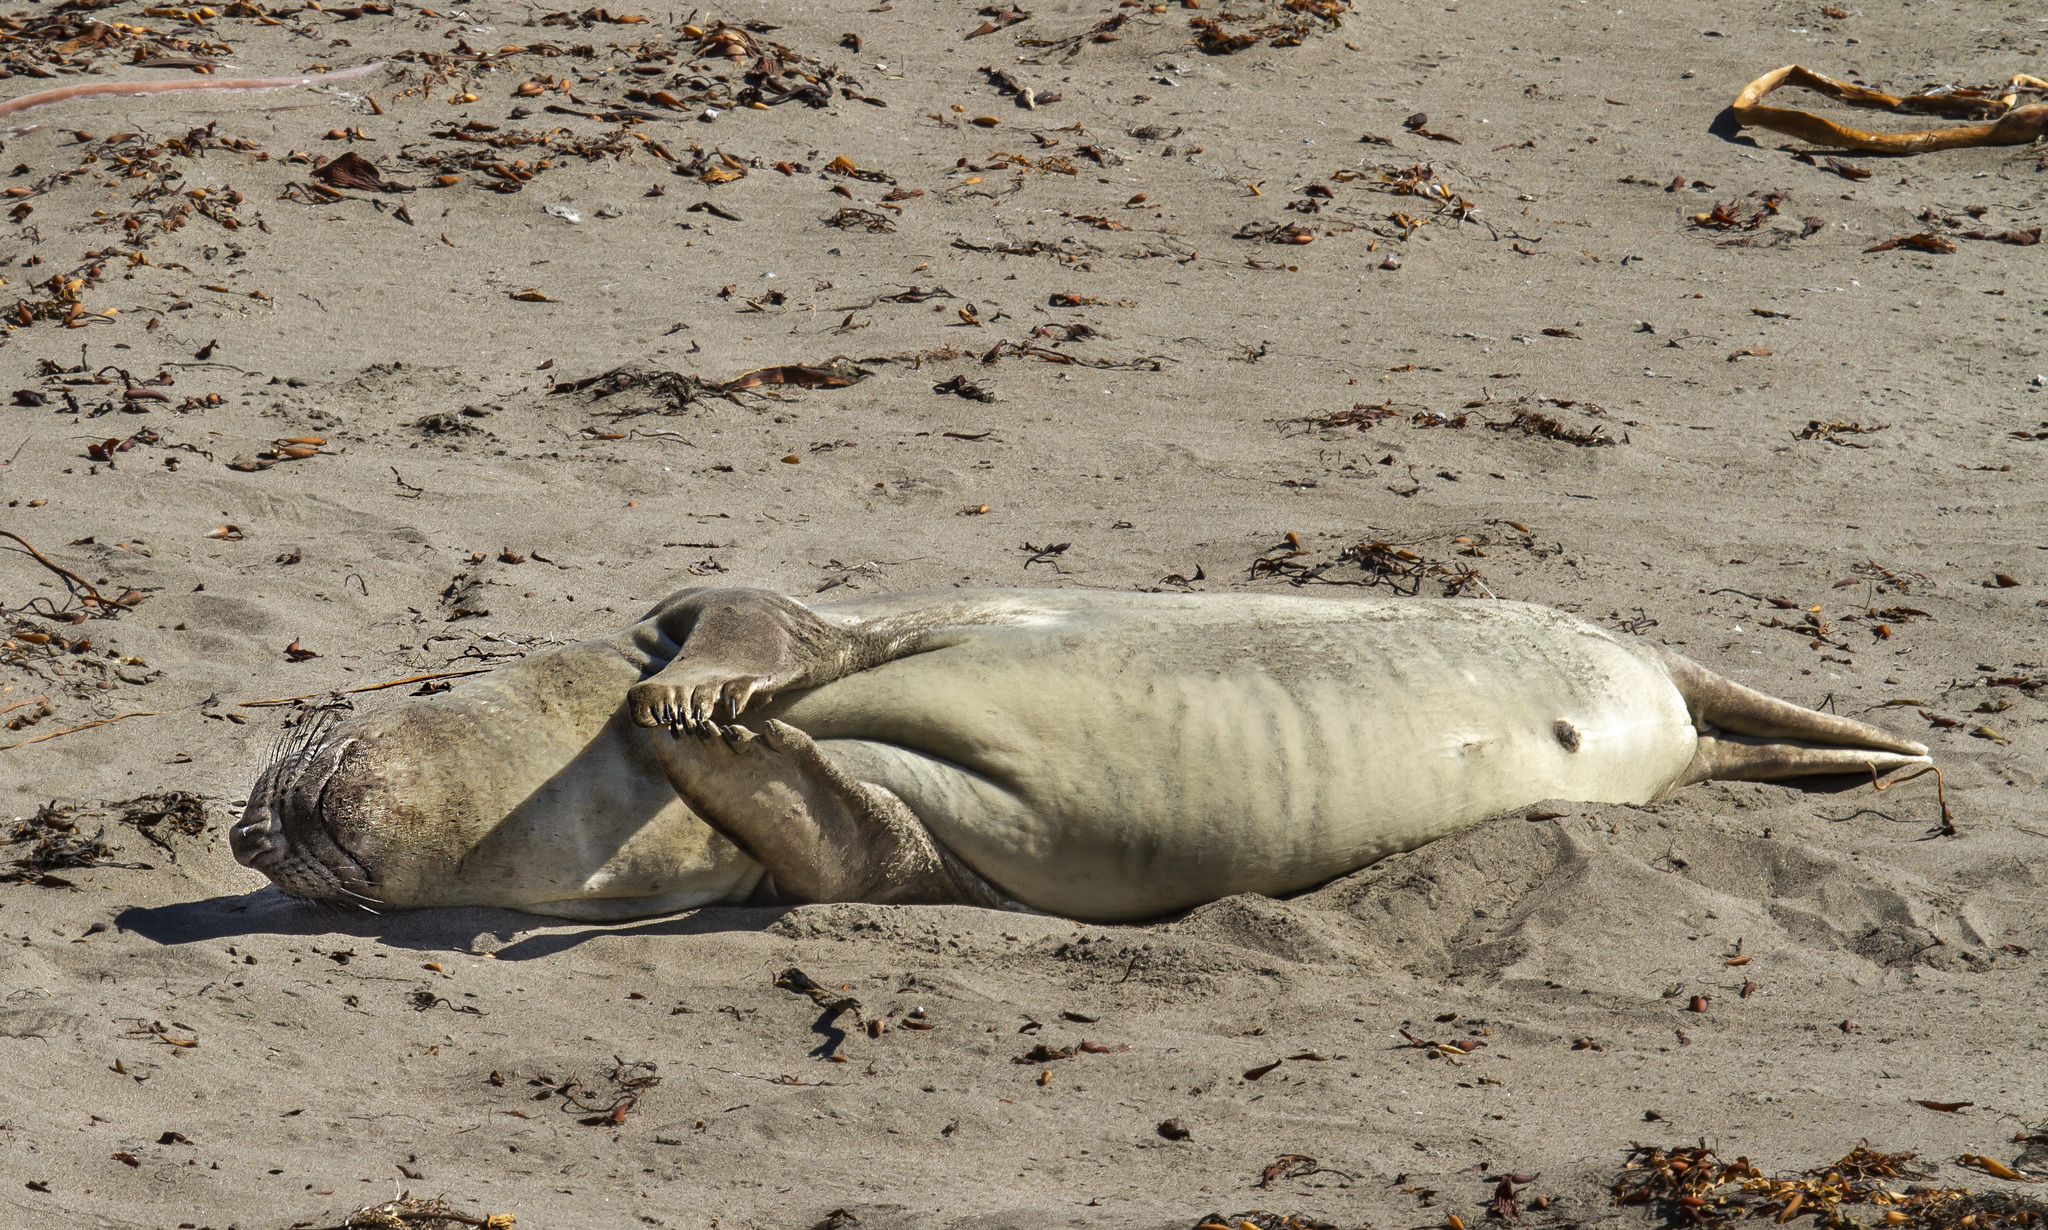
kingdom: Animalia
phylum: Chordata
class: Mammalia
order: Carnivora
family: Phocidae
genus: Mirounga
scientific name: Mirounga angustirostris
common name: Northern elephant seal
